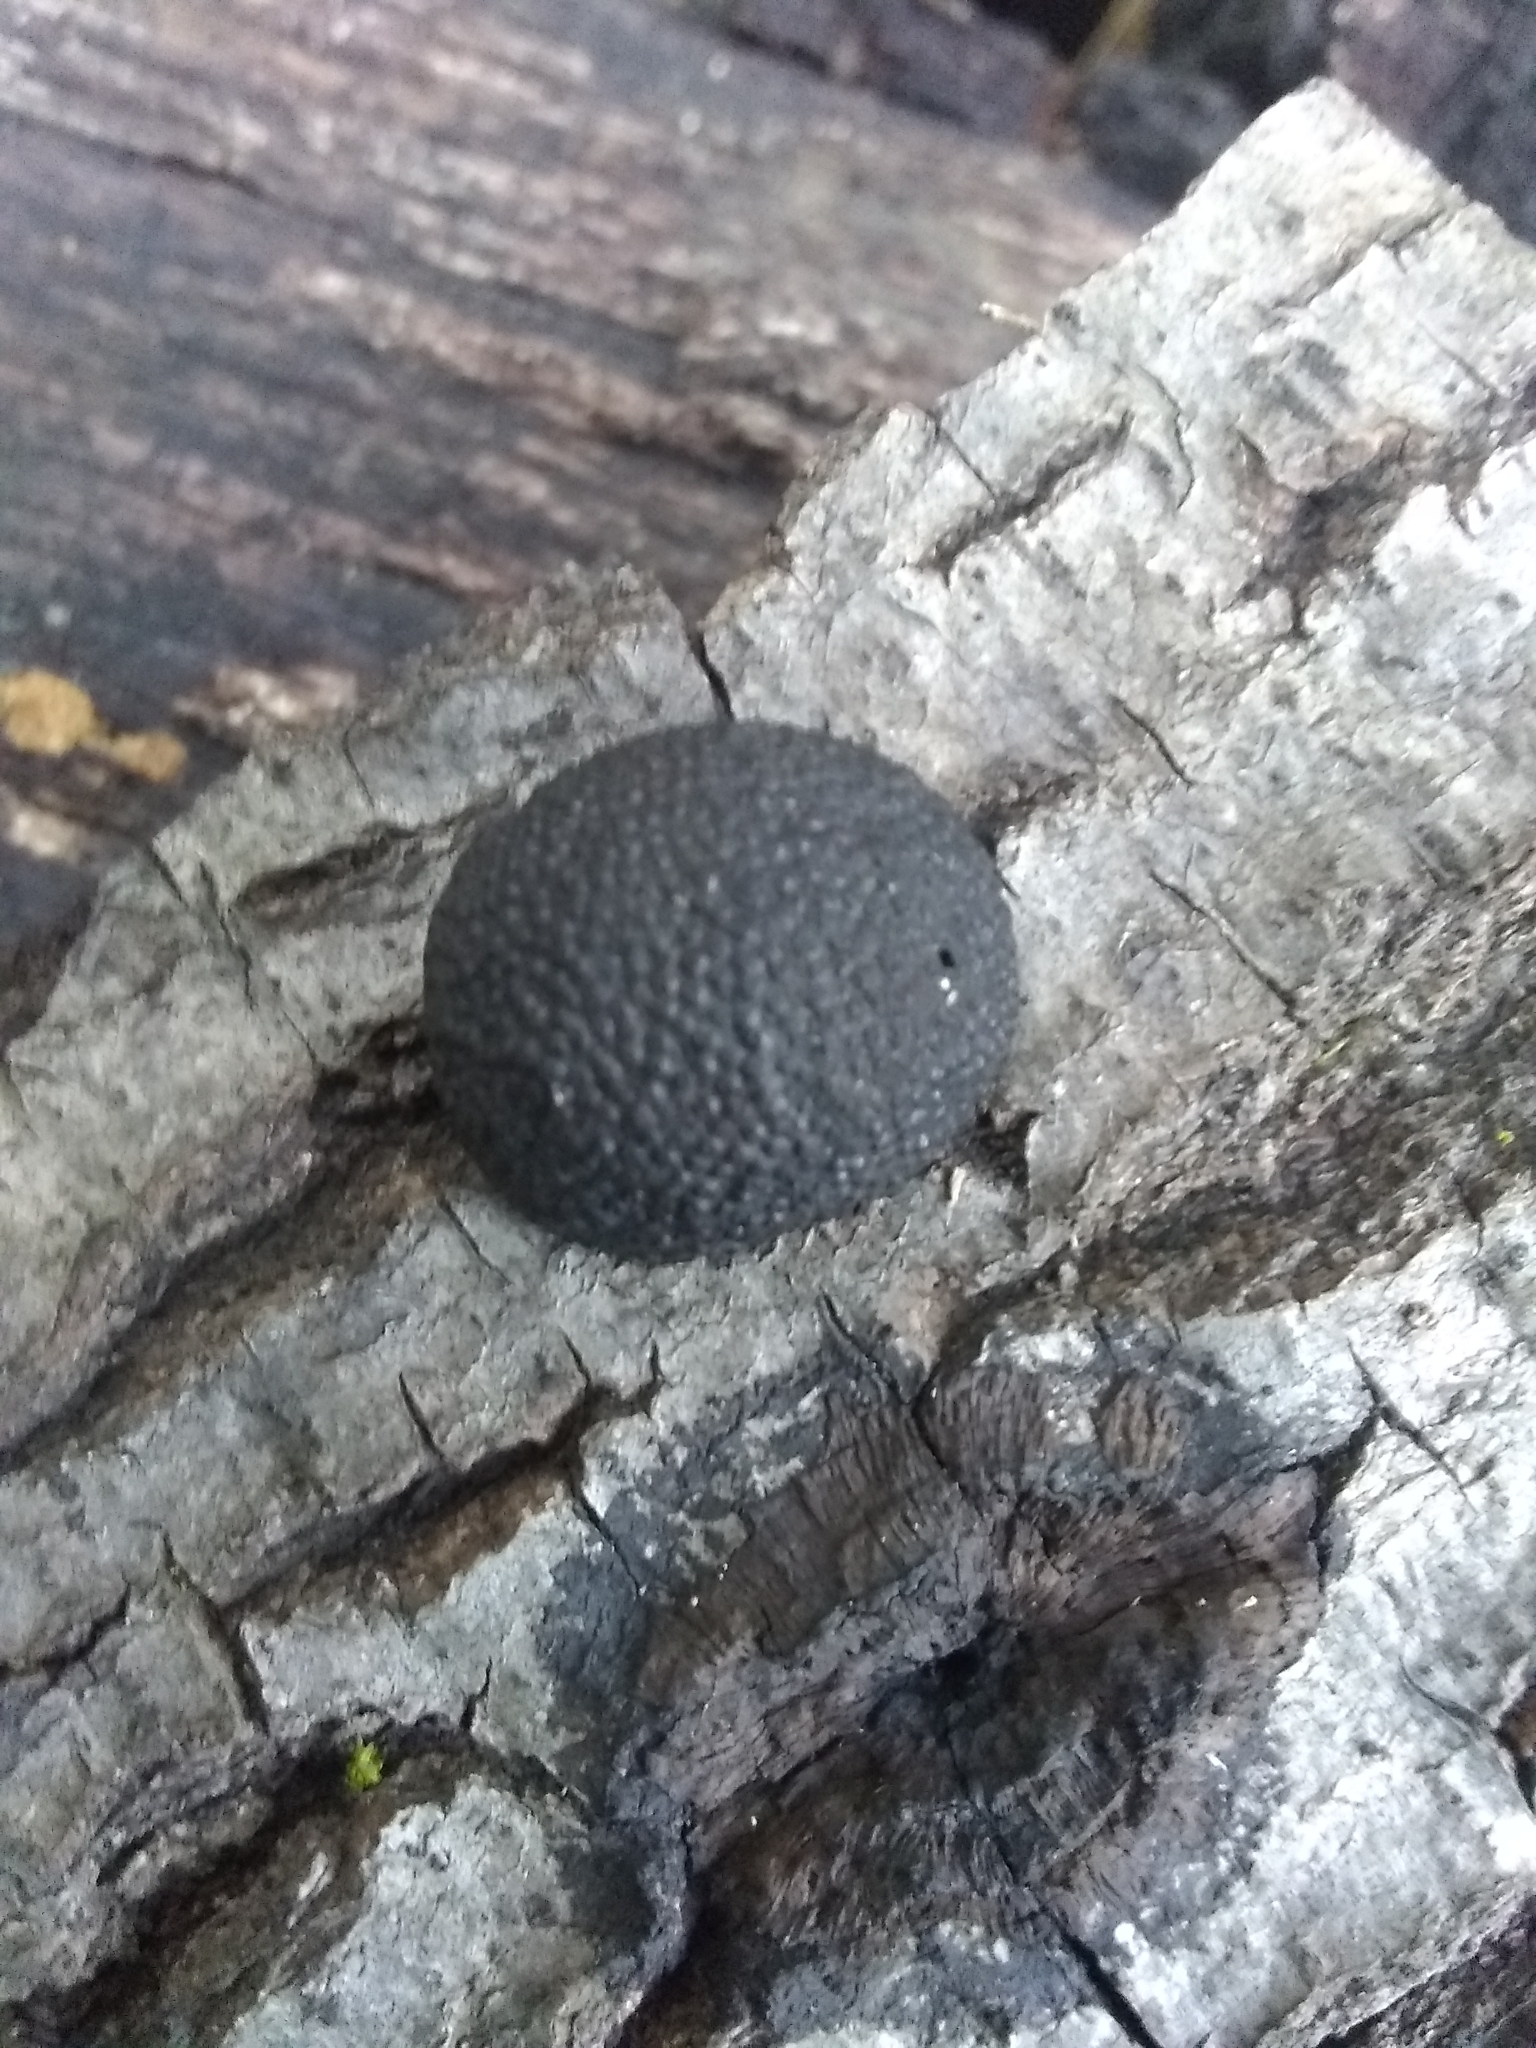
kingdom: Fungi
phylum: Ascomycota
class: Sordariomycetes
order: Xylariales
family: Hypoxylaceae
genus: Annulohypoxylon
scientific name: Annulohypoxylon thouarsianum
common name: Cramp balls
